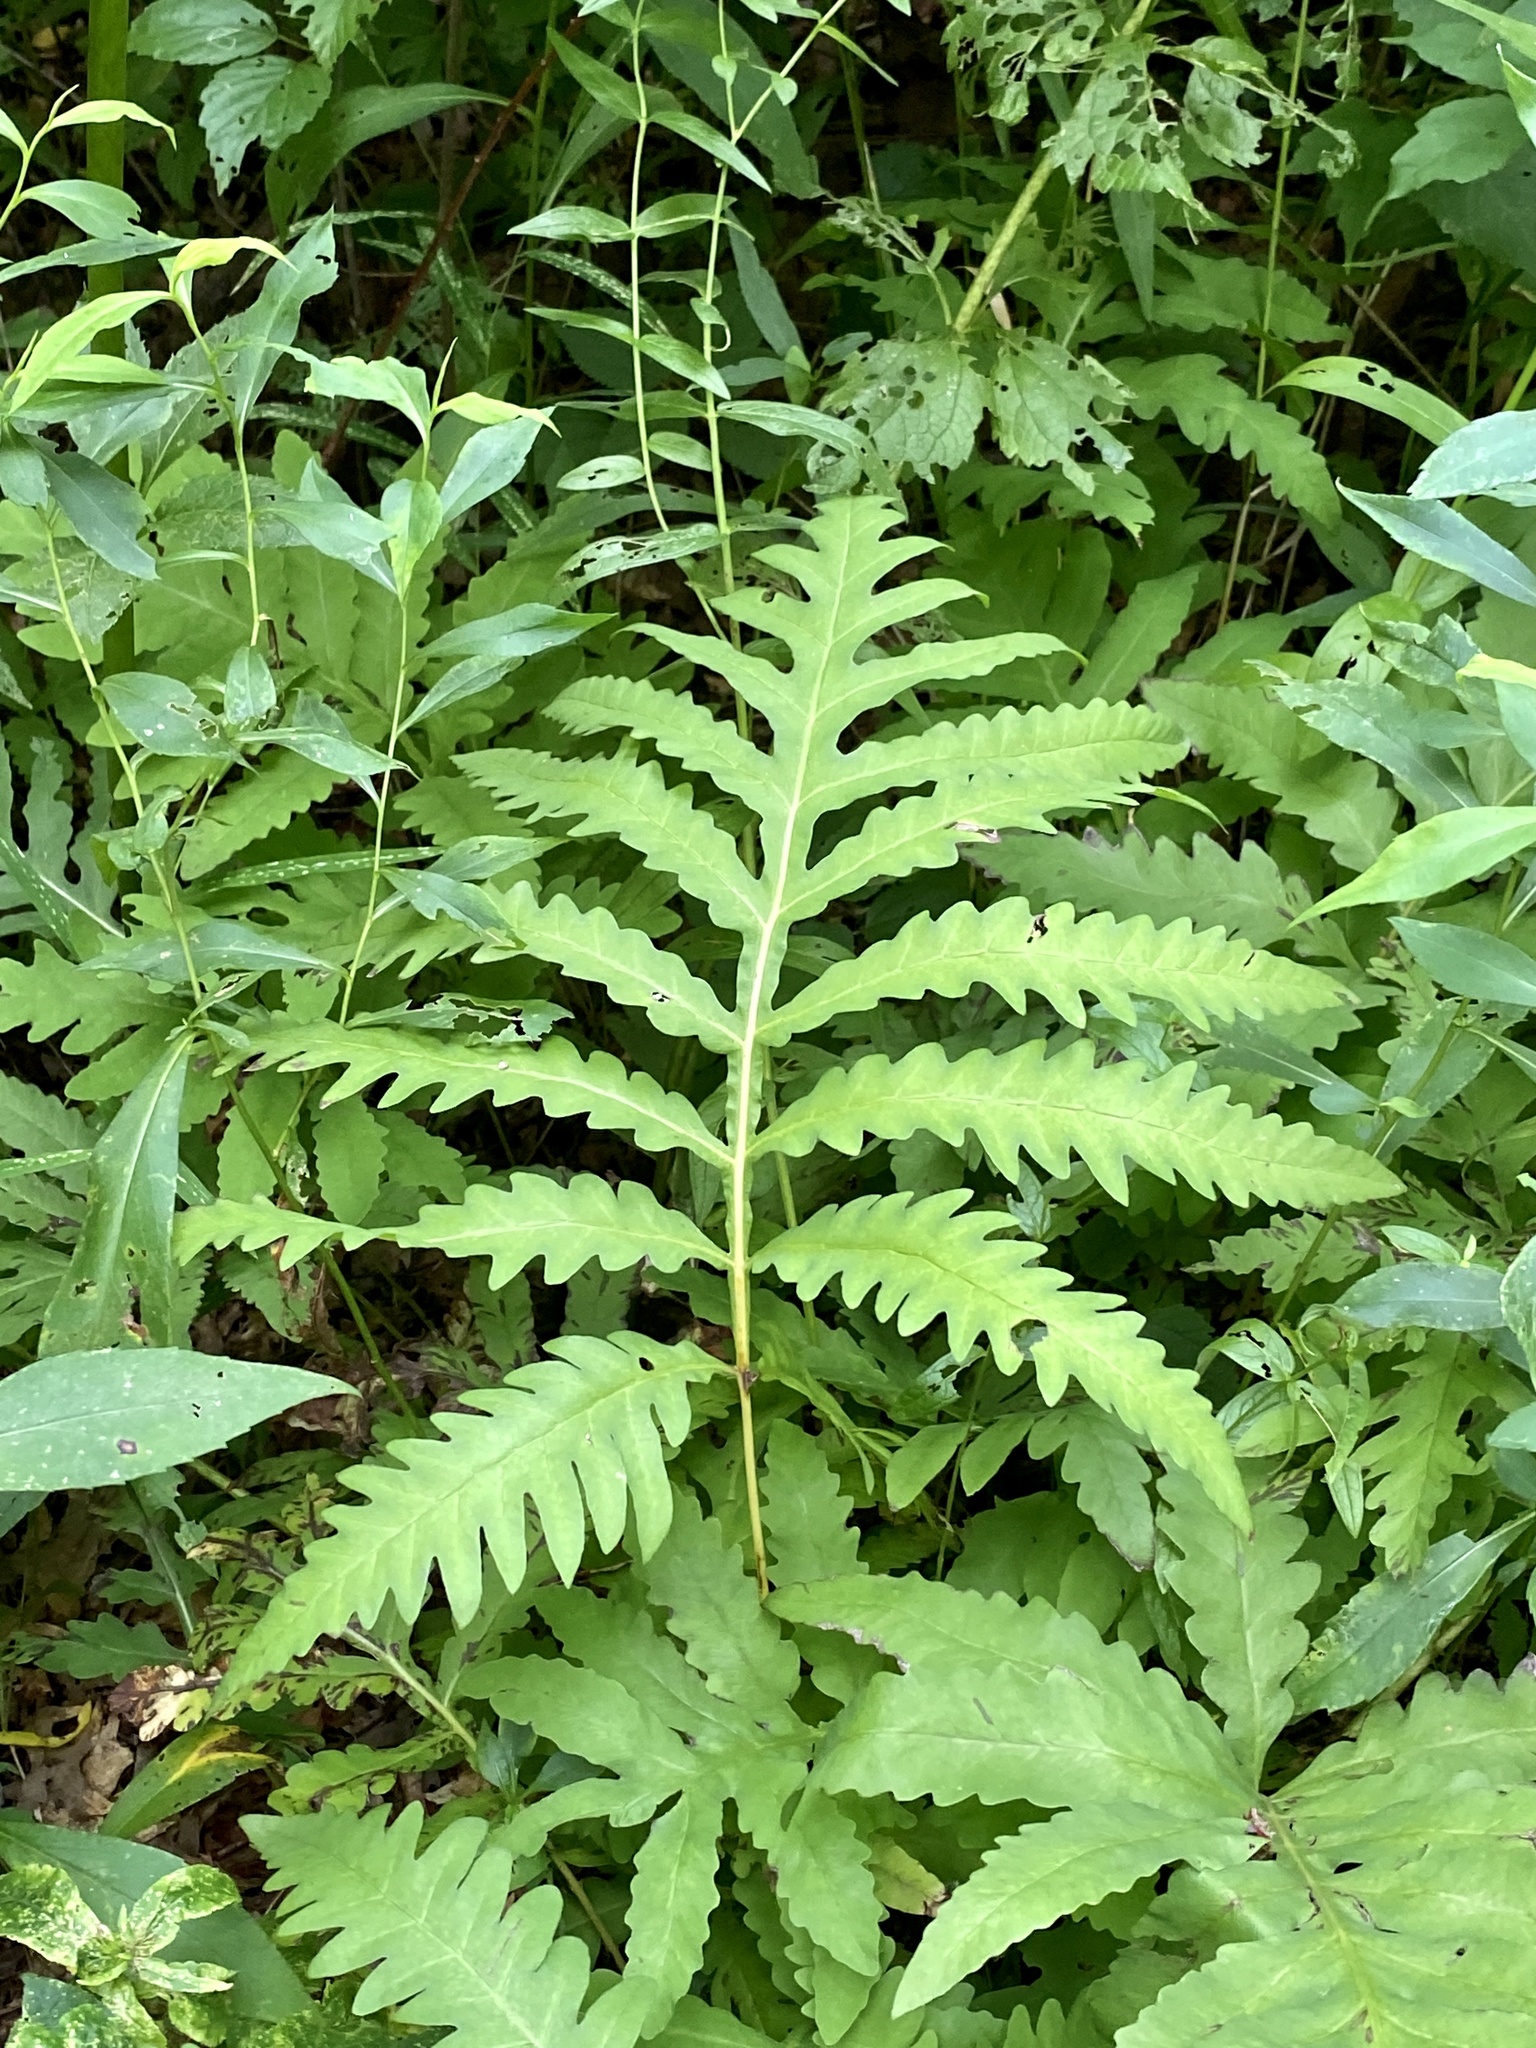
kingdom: Plantae
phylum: Tracheophyta
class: Polypodiopsida
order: Polypodiales
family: Onocleaceae
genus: Onoclea
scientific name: Onoclea sensibilis
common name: Sensitive fern
